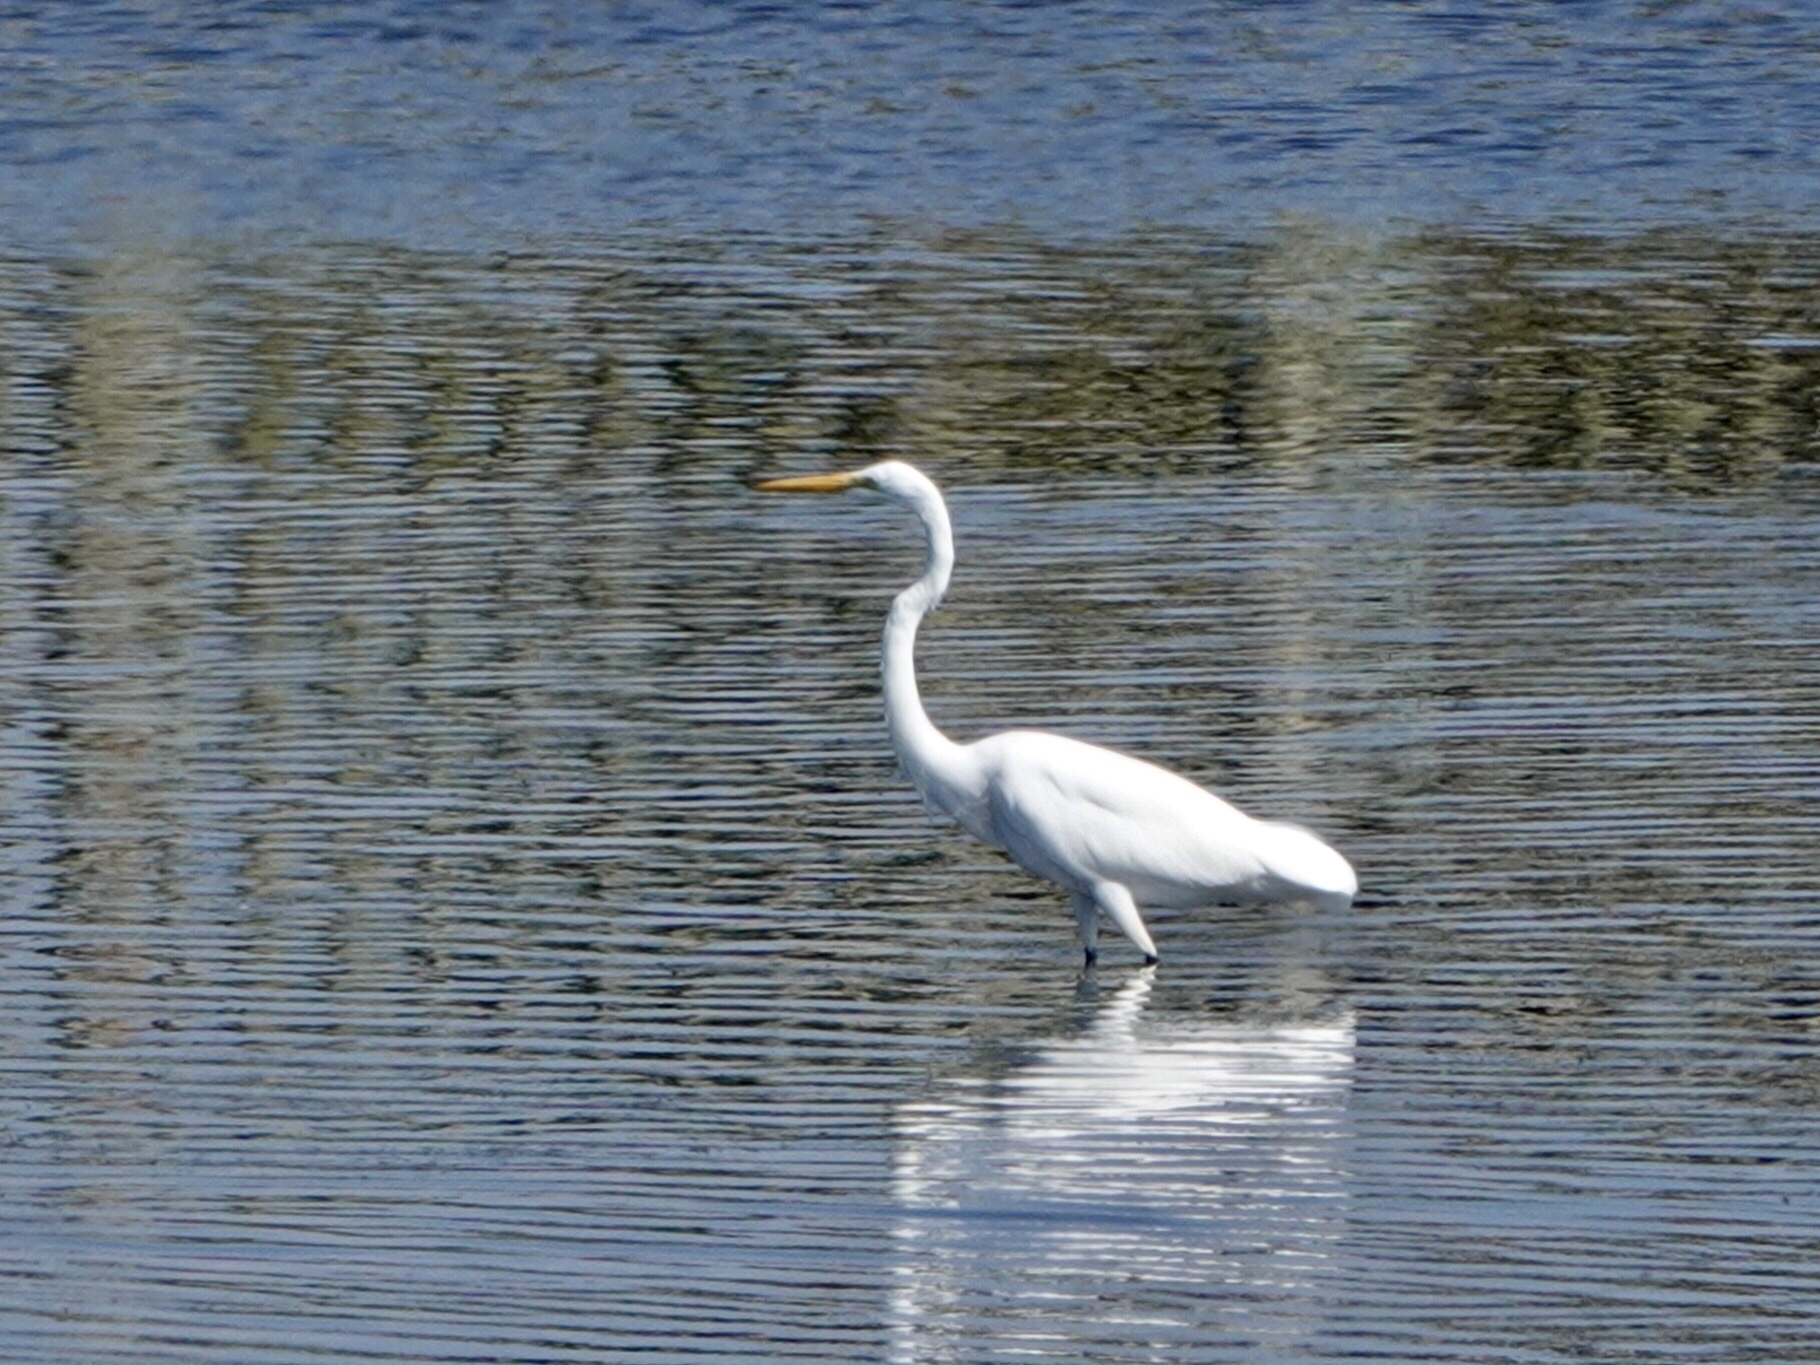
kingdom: Animalia
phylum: Chordata
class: Aves
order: Pelecaniformes
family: Ardeidae
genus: Ardea
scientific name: Ardea alba
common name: Great egret
